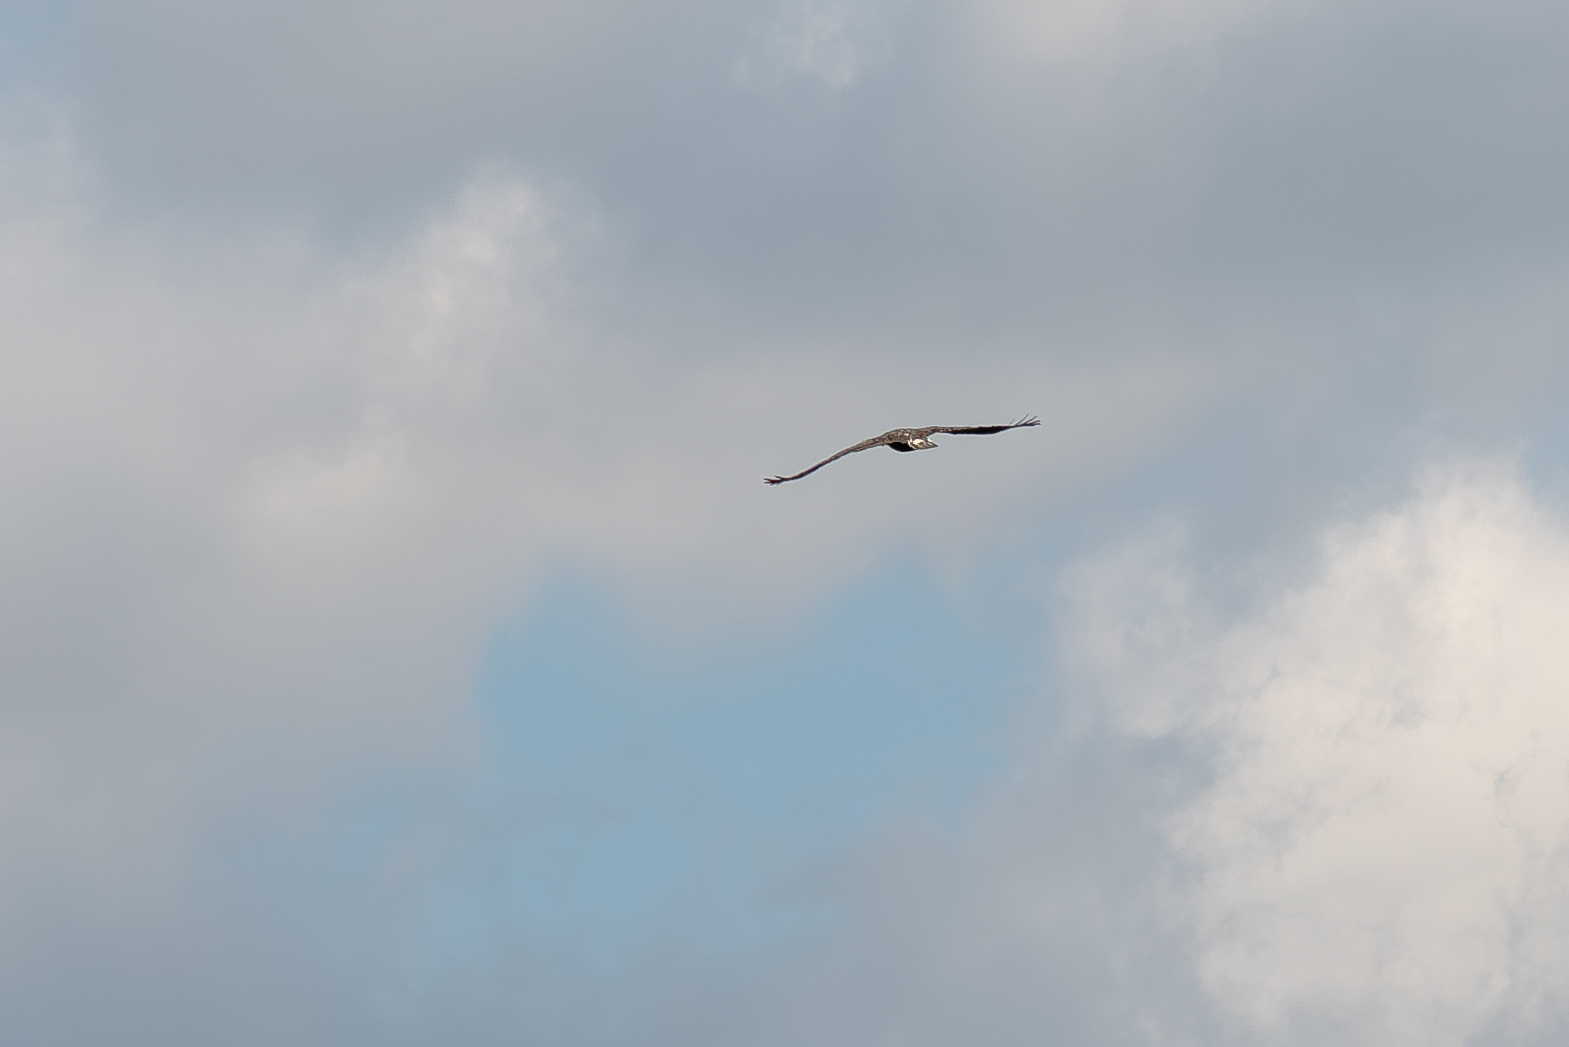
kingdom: Animalia
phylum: Chordata
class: Aves
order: Accipitriformes
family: Accipitridae
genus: Haliaeetus
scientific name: Haliaeetus leucocephalus
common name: Bald eagle
